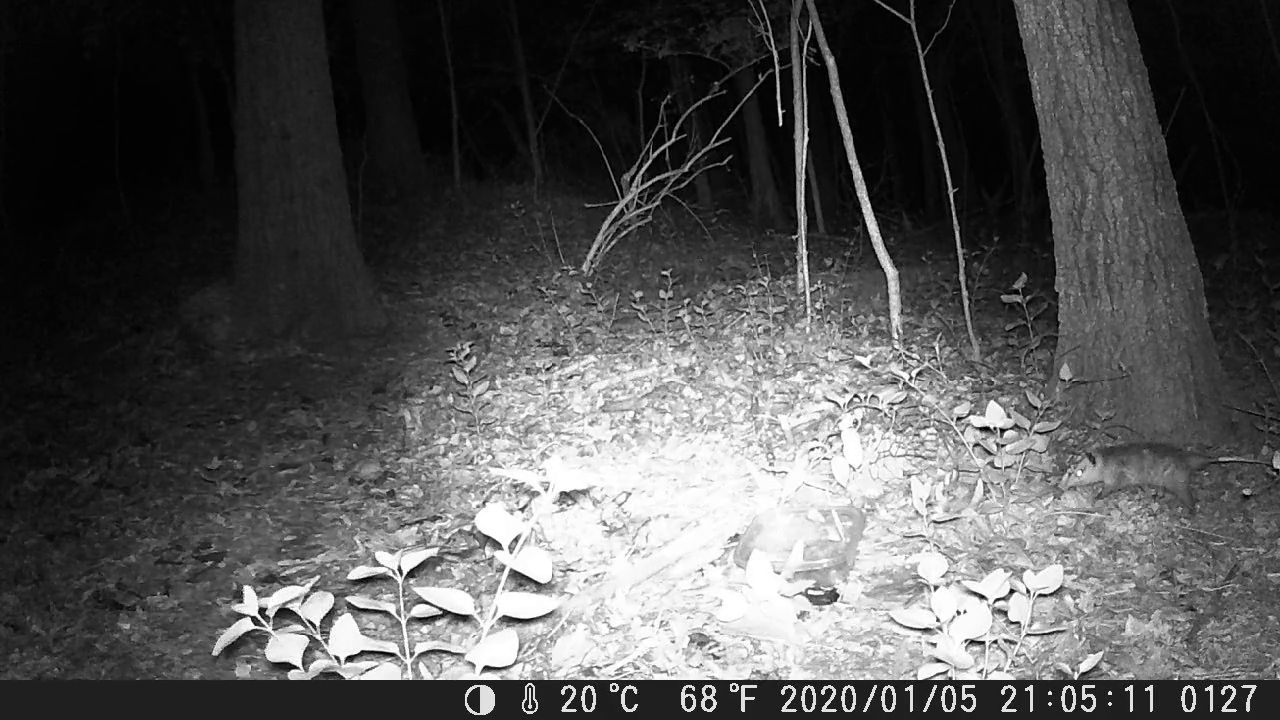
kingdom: Animalia
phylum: Chordata
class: Mammalia
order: Didelphimorphia
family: Didelphidae
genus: Didelphis
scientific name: Didelphis virginiana
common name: Virginia opossum
